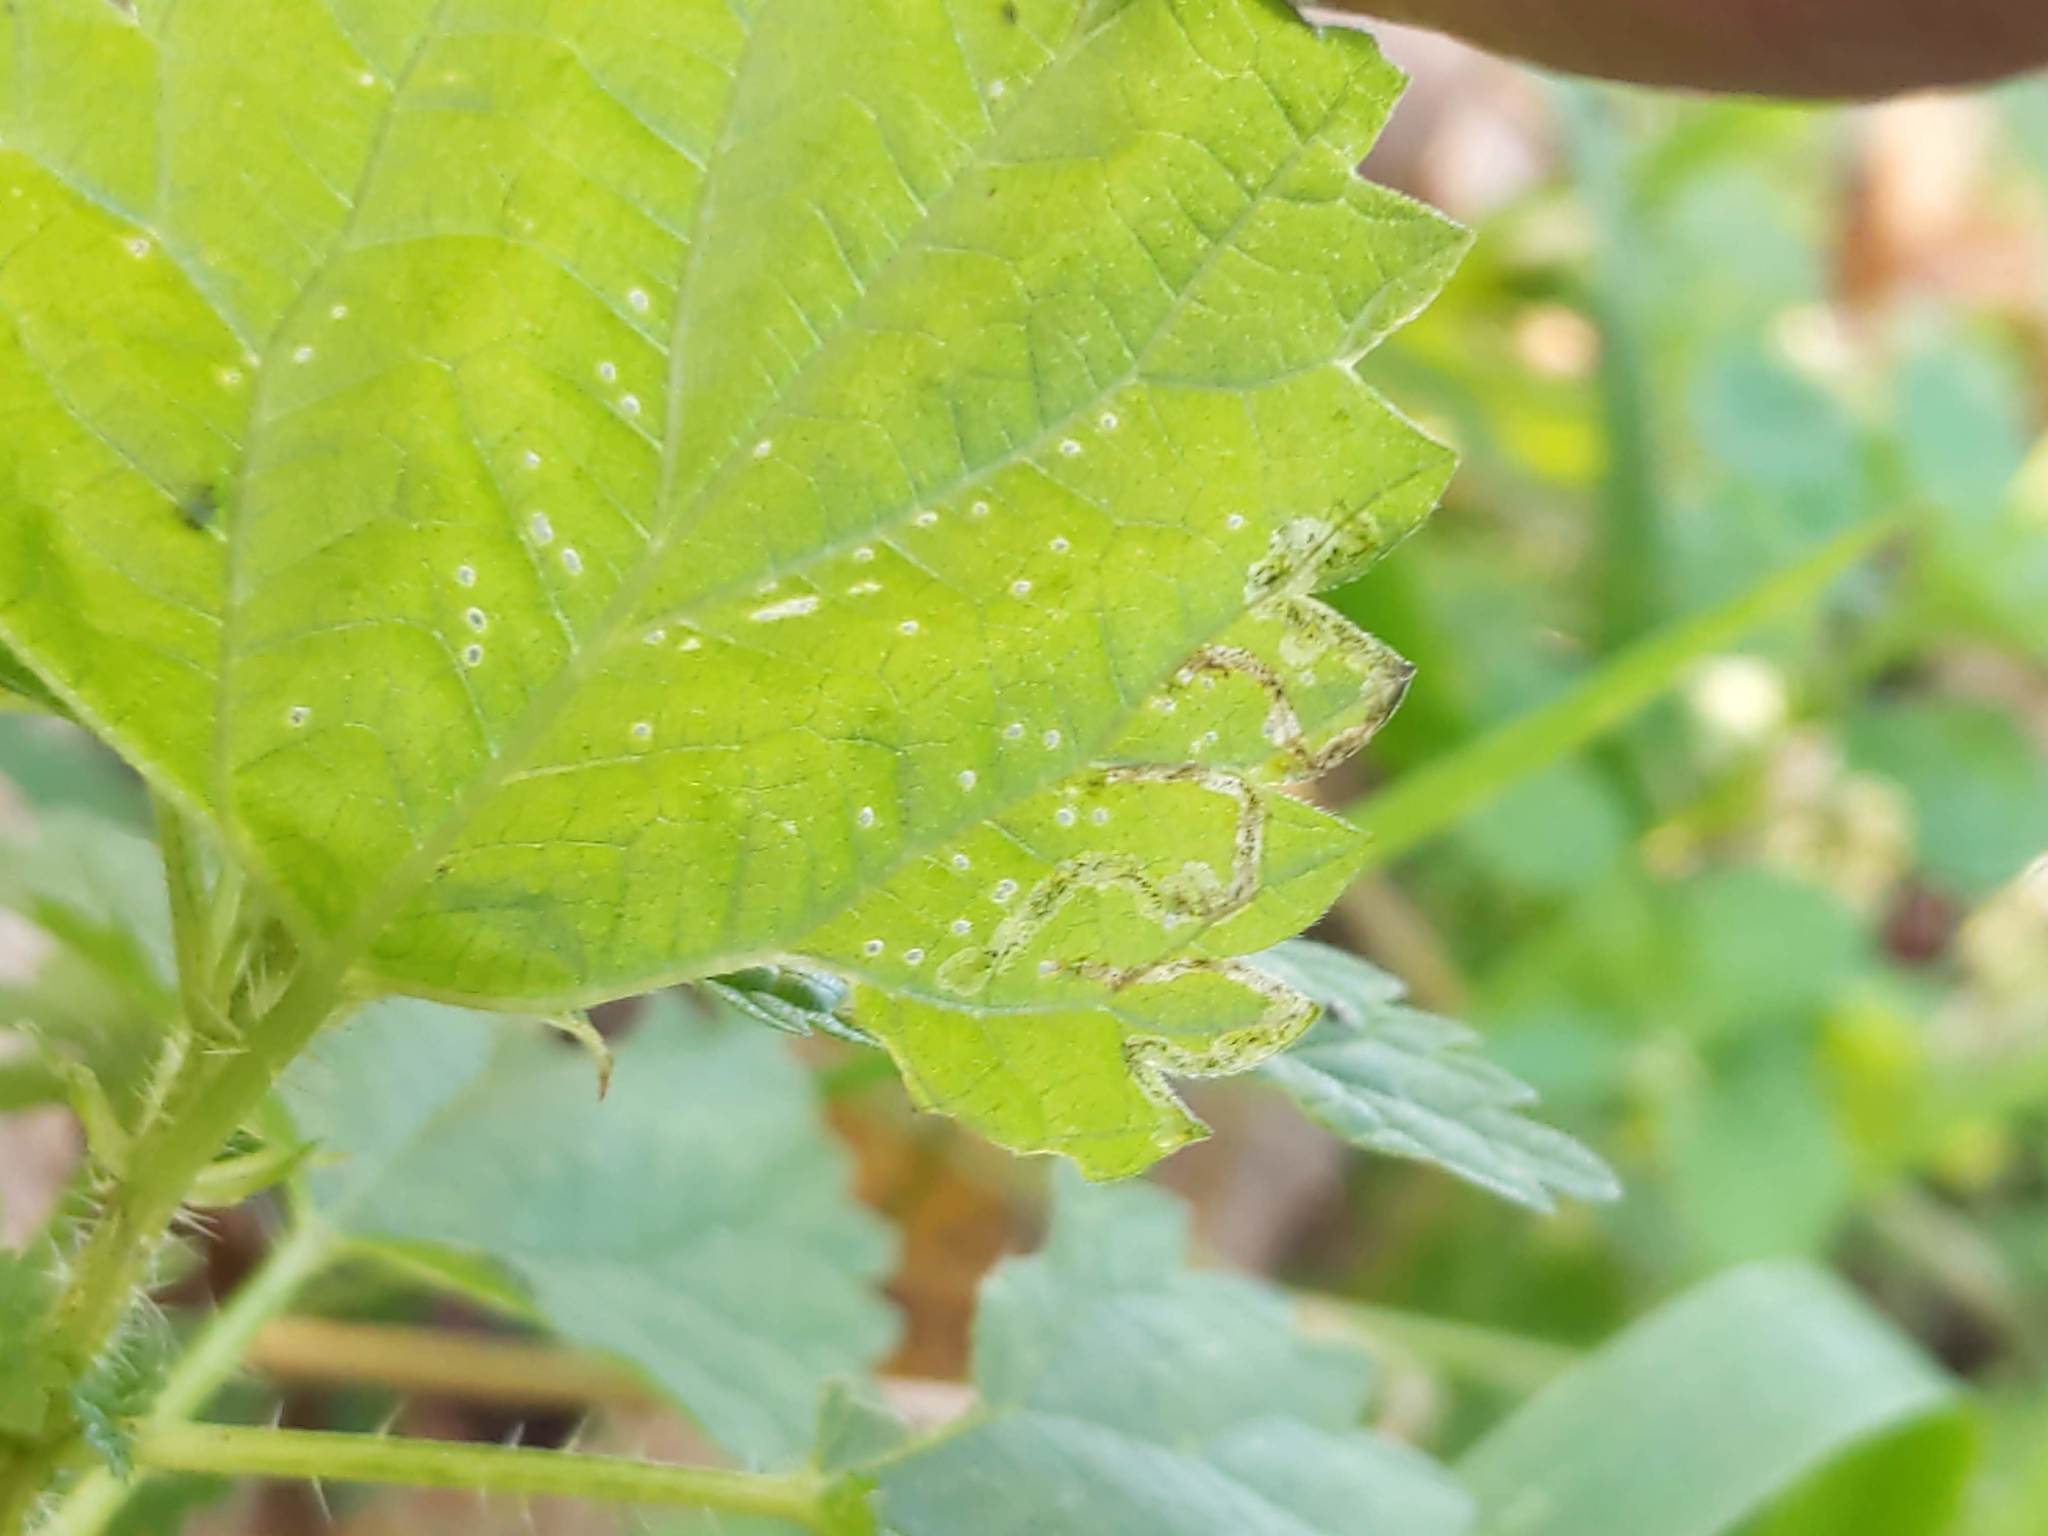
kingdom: Animalia
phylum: Arthropoda
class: Insecta
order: Diptera
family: Agromyzidae
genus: Agromyza
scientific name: Agromyza pseudoreptans
